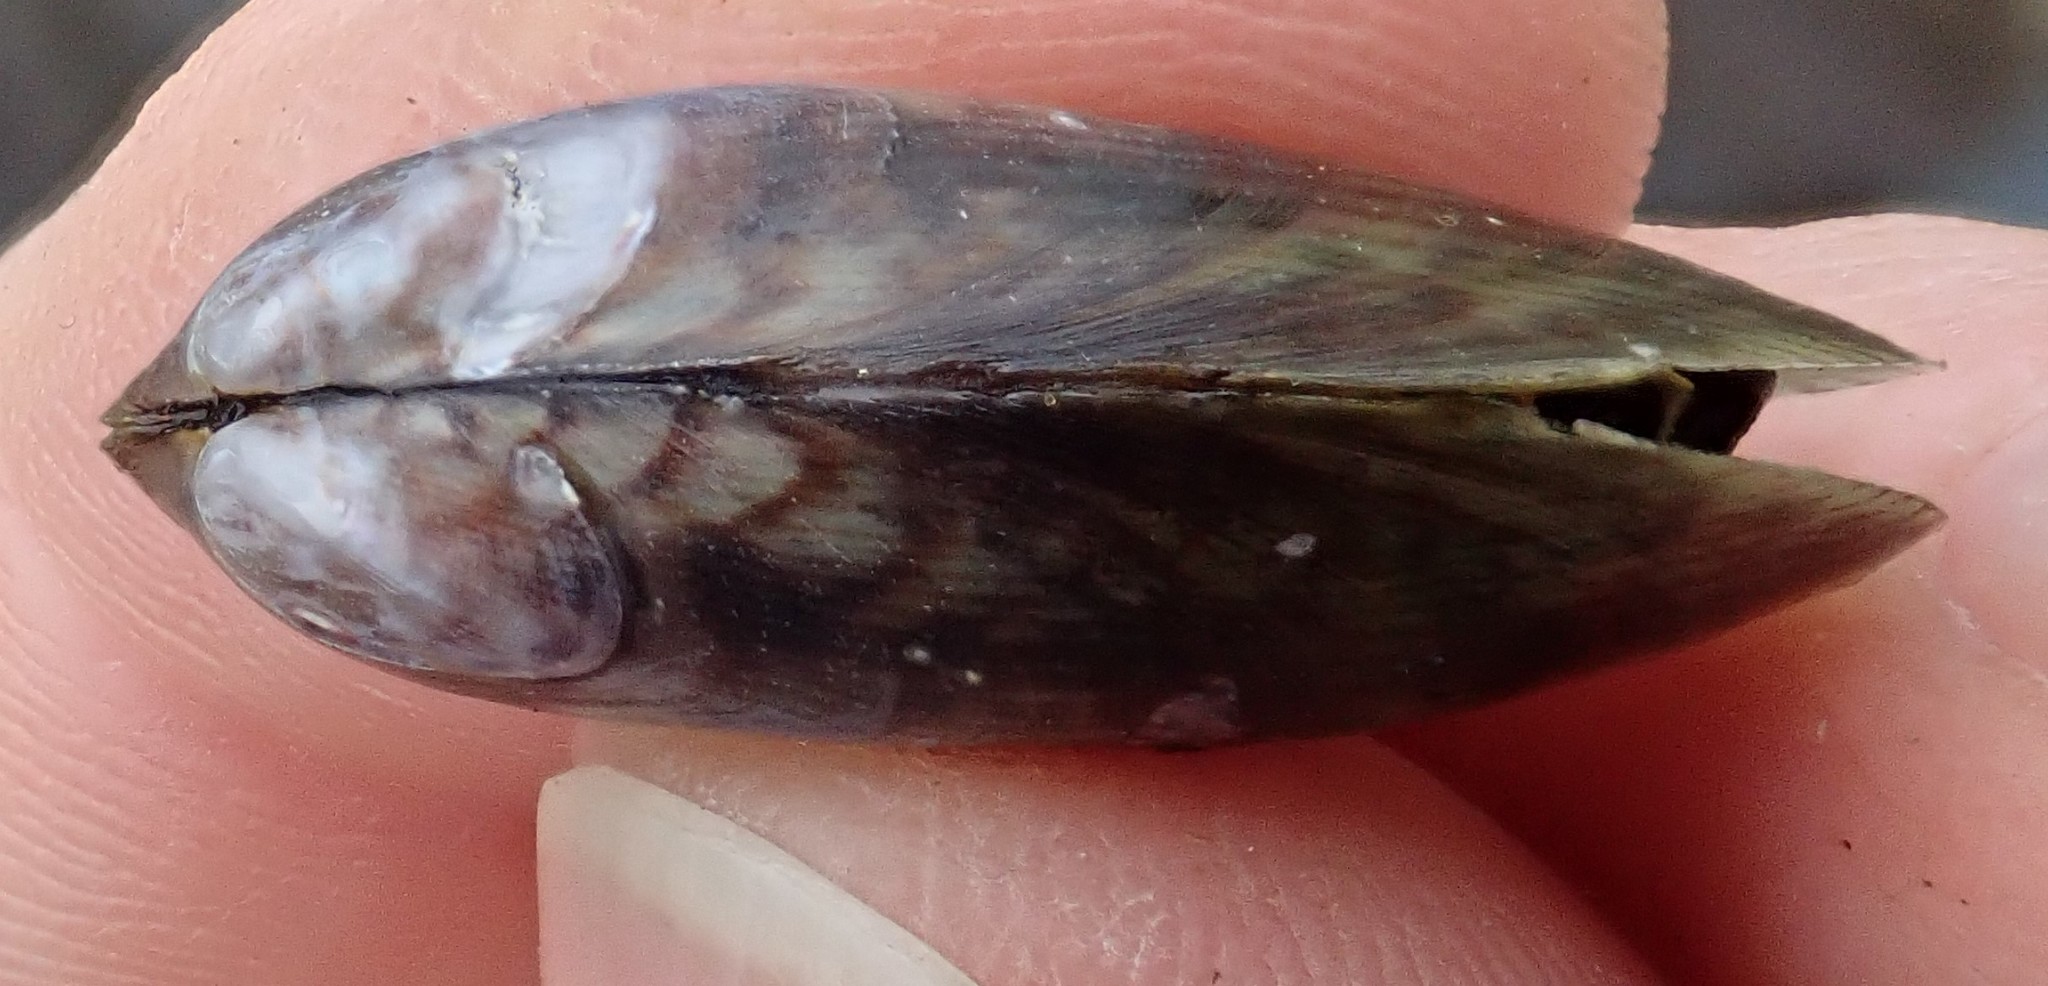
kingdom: Animalia
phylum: Mollusca
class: Bivalvia
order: Mytilida
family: Mytilidae
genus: Arcuatula
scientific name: Arcuatula senhousia
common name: Asian mussel
